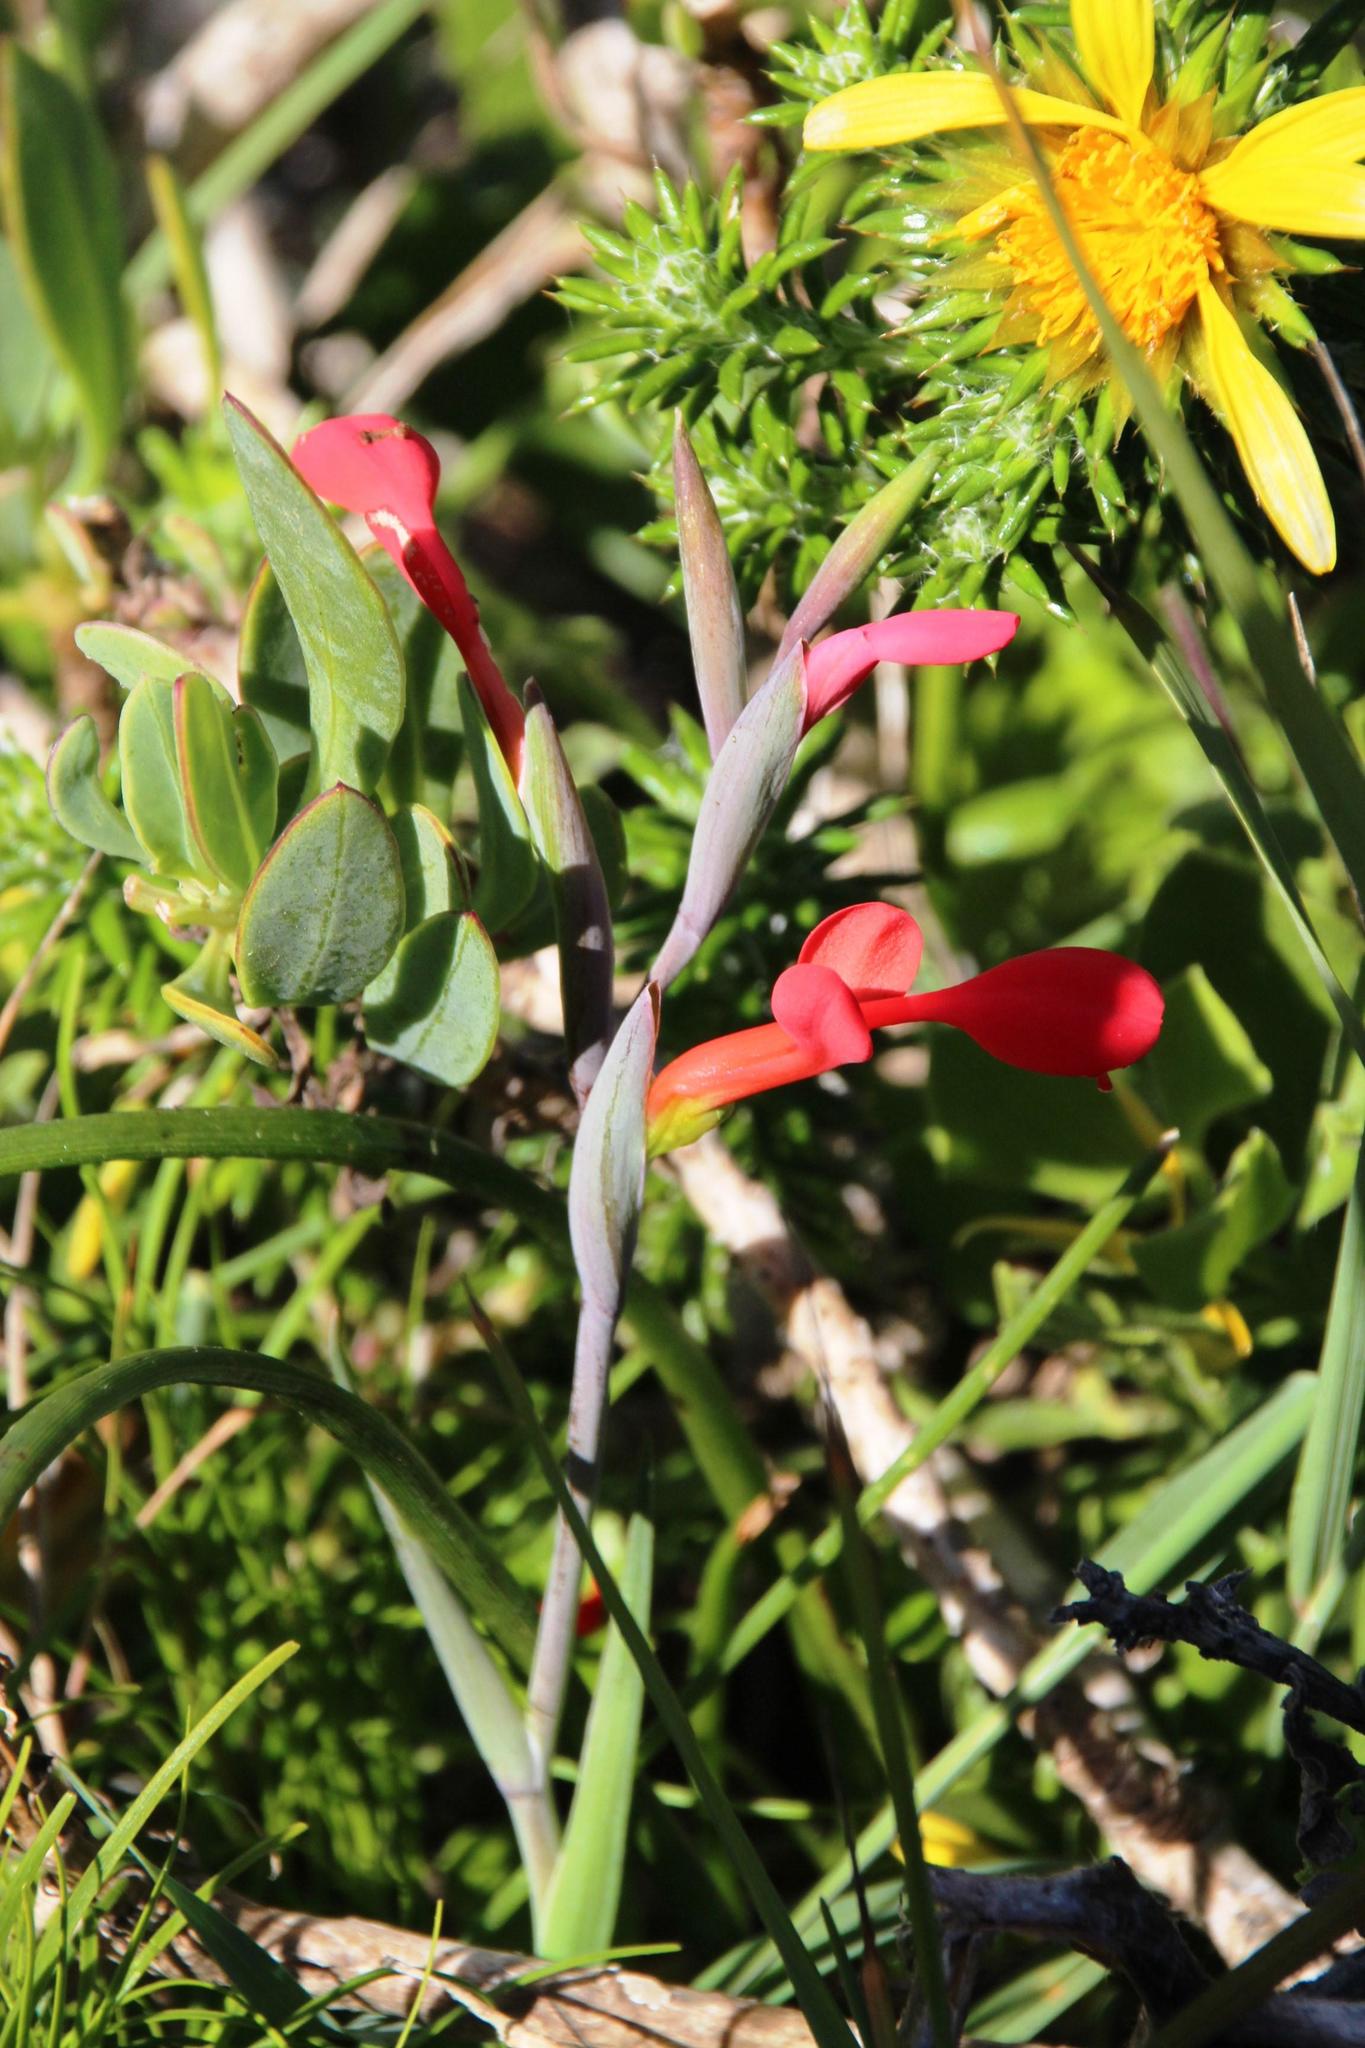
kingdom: Plantae
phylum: Tracheophyta
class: Liliopsida
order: Asparagales
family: Iridaceae
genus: Gladiolus
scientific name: Gladiolus cunonius
